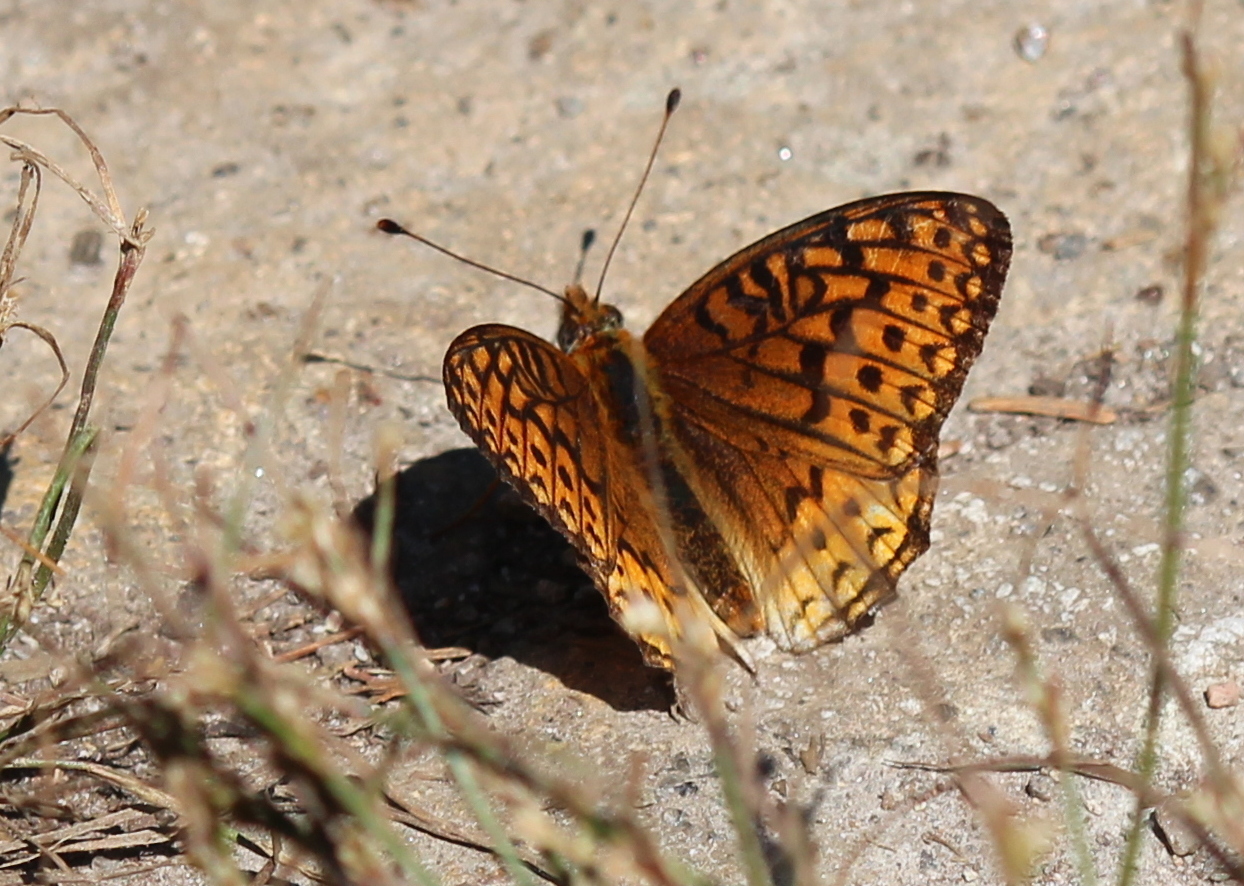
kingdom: Animalia
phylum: Arthropoda
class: Insecta
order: Lepidoptera
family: Nymphalidae
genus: Speyeria
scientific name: Speyeria atlantis
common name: Atlantis fritillary
